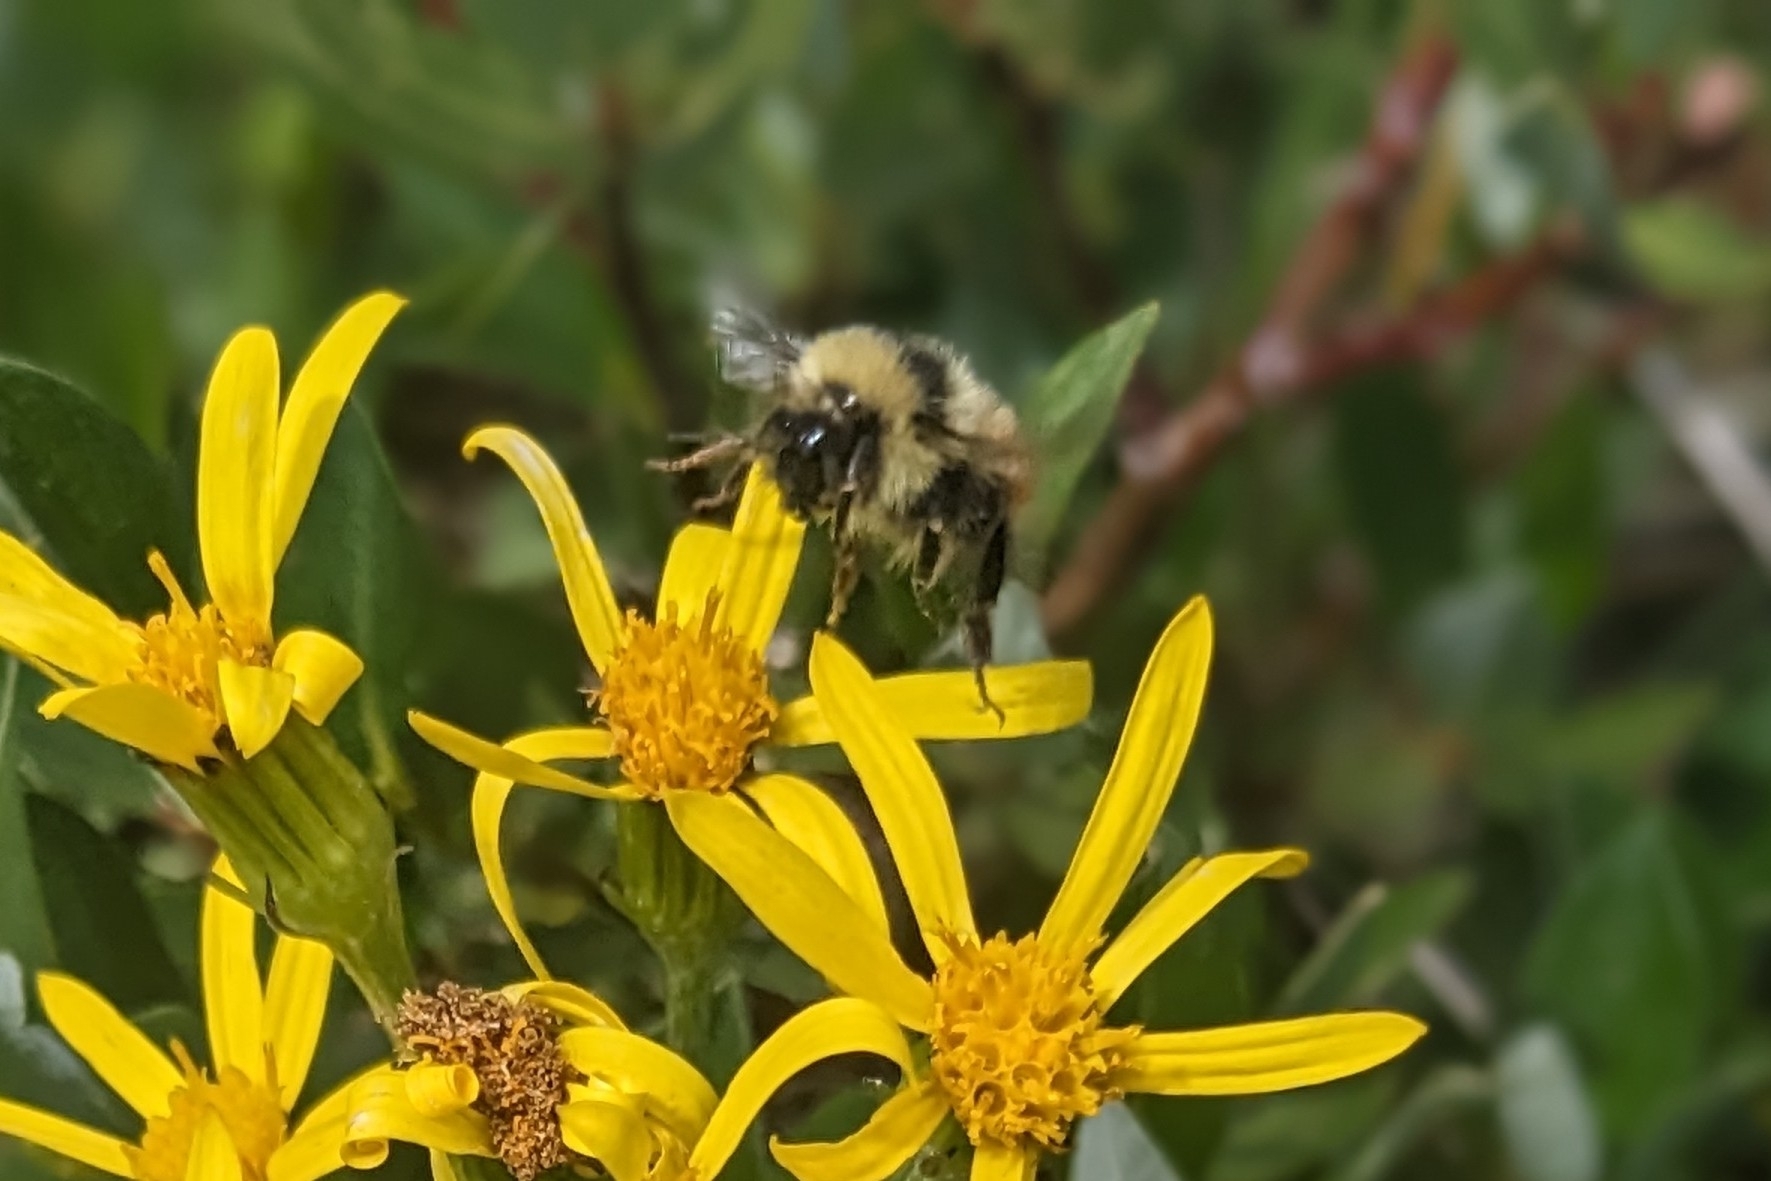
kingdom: Animalia
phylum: Arthropoda
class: Insecta
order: Hymenoptera
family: Apidae
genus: Bombus
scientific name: Bombus sylvicola
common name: Forest bumble bee
